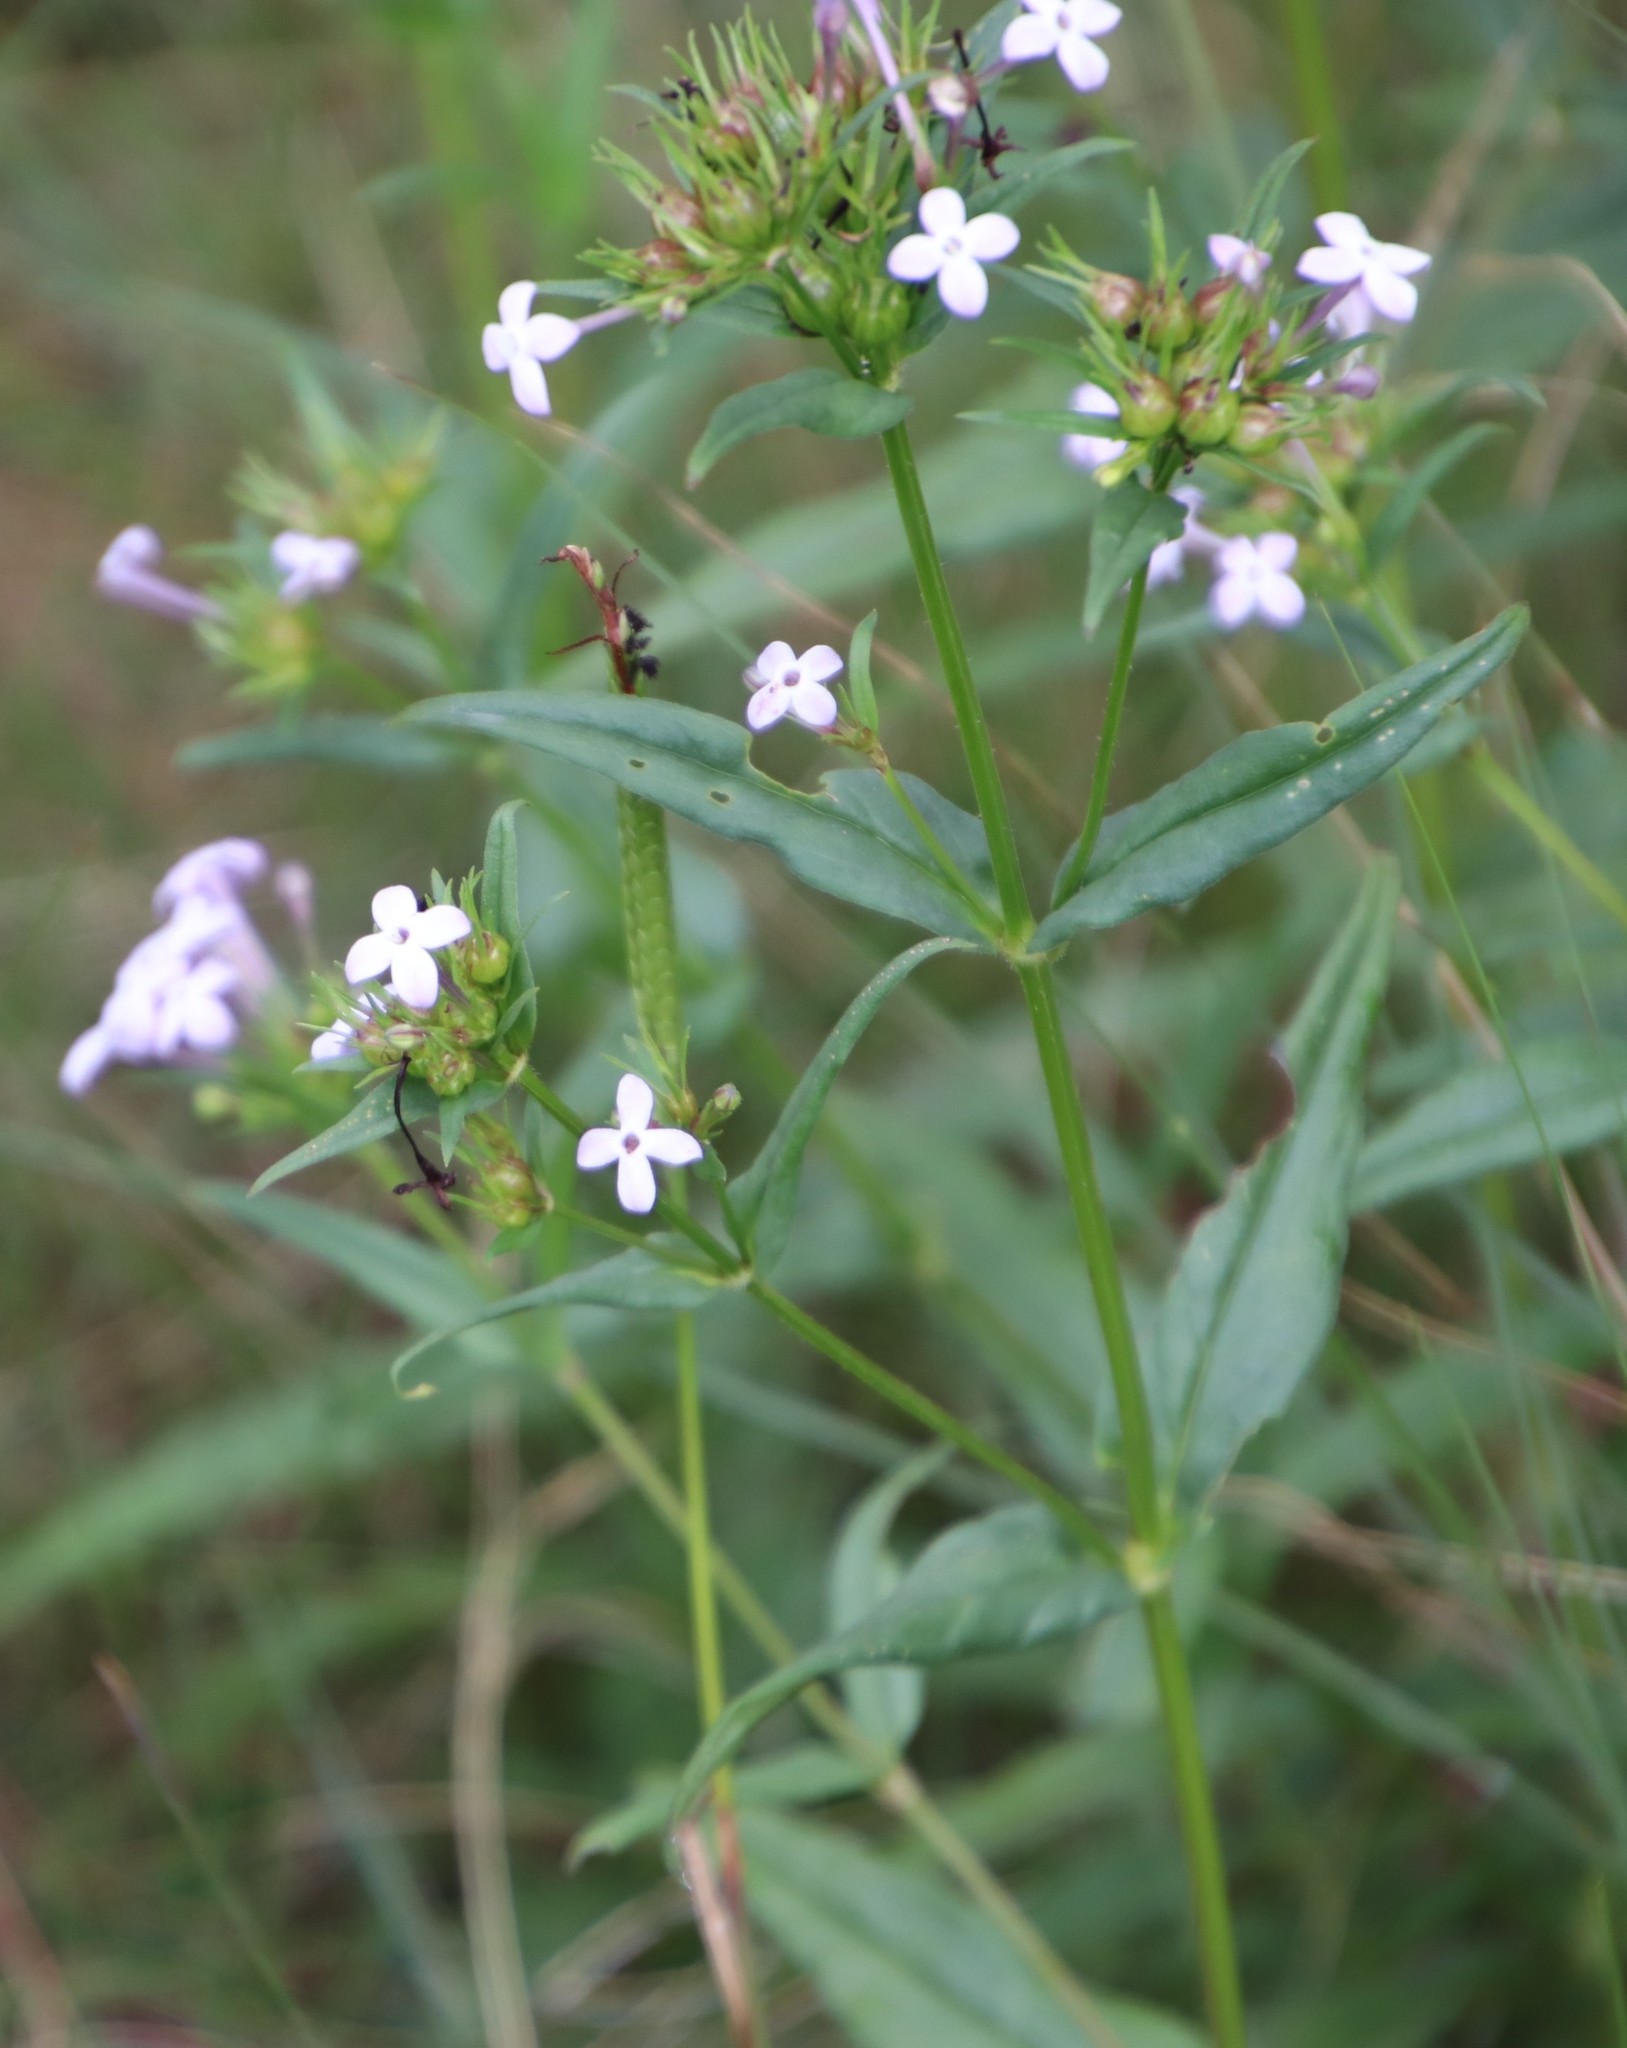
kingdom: Plantae
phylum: Tracheophyta
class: Magnoliopsida
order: Gentianales
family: Rubiaceae
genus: Conostomium
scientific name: Conostomium natalense
